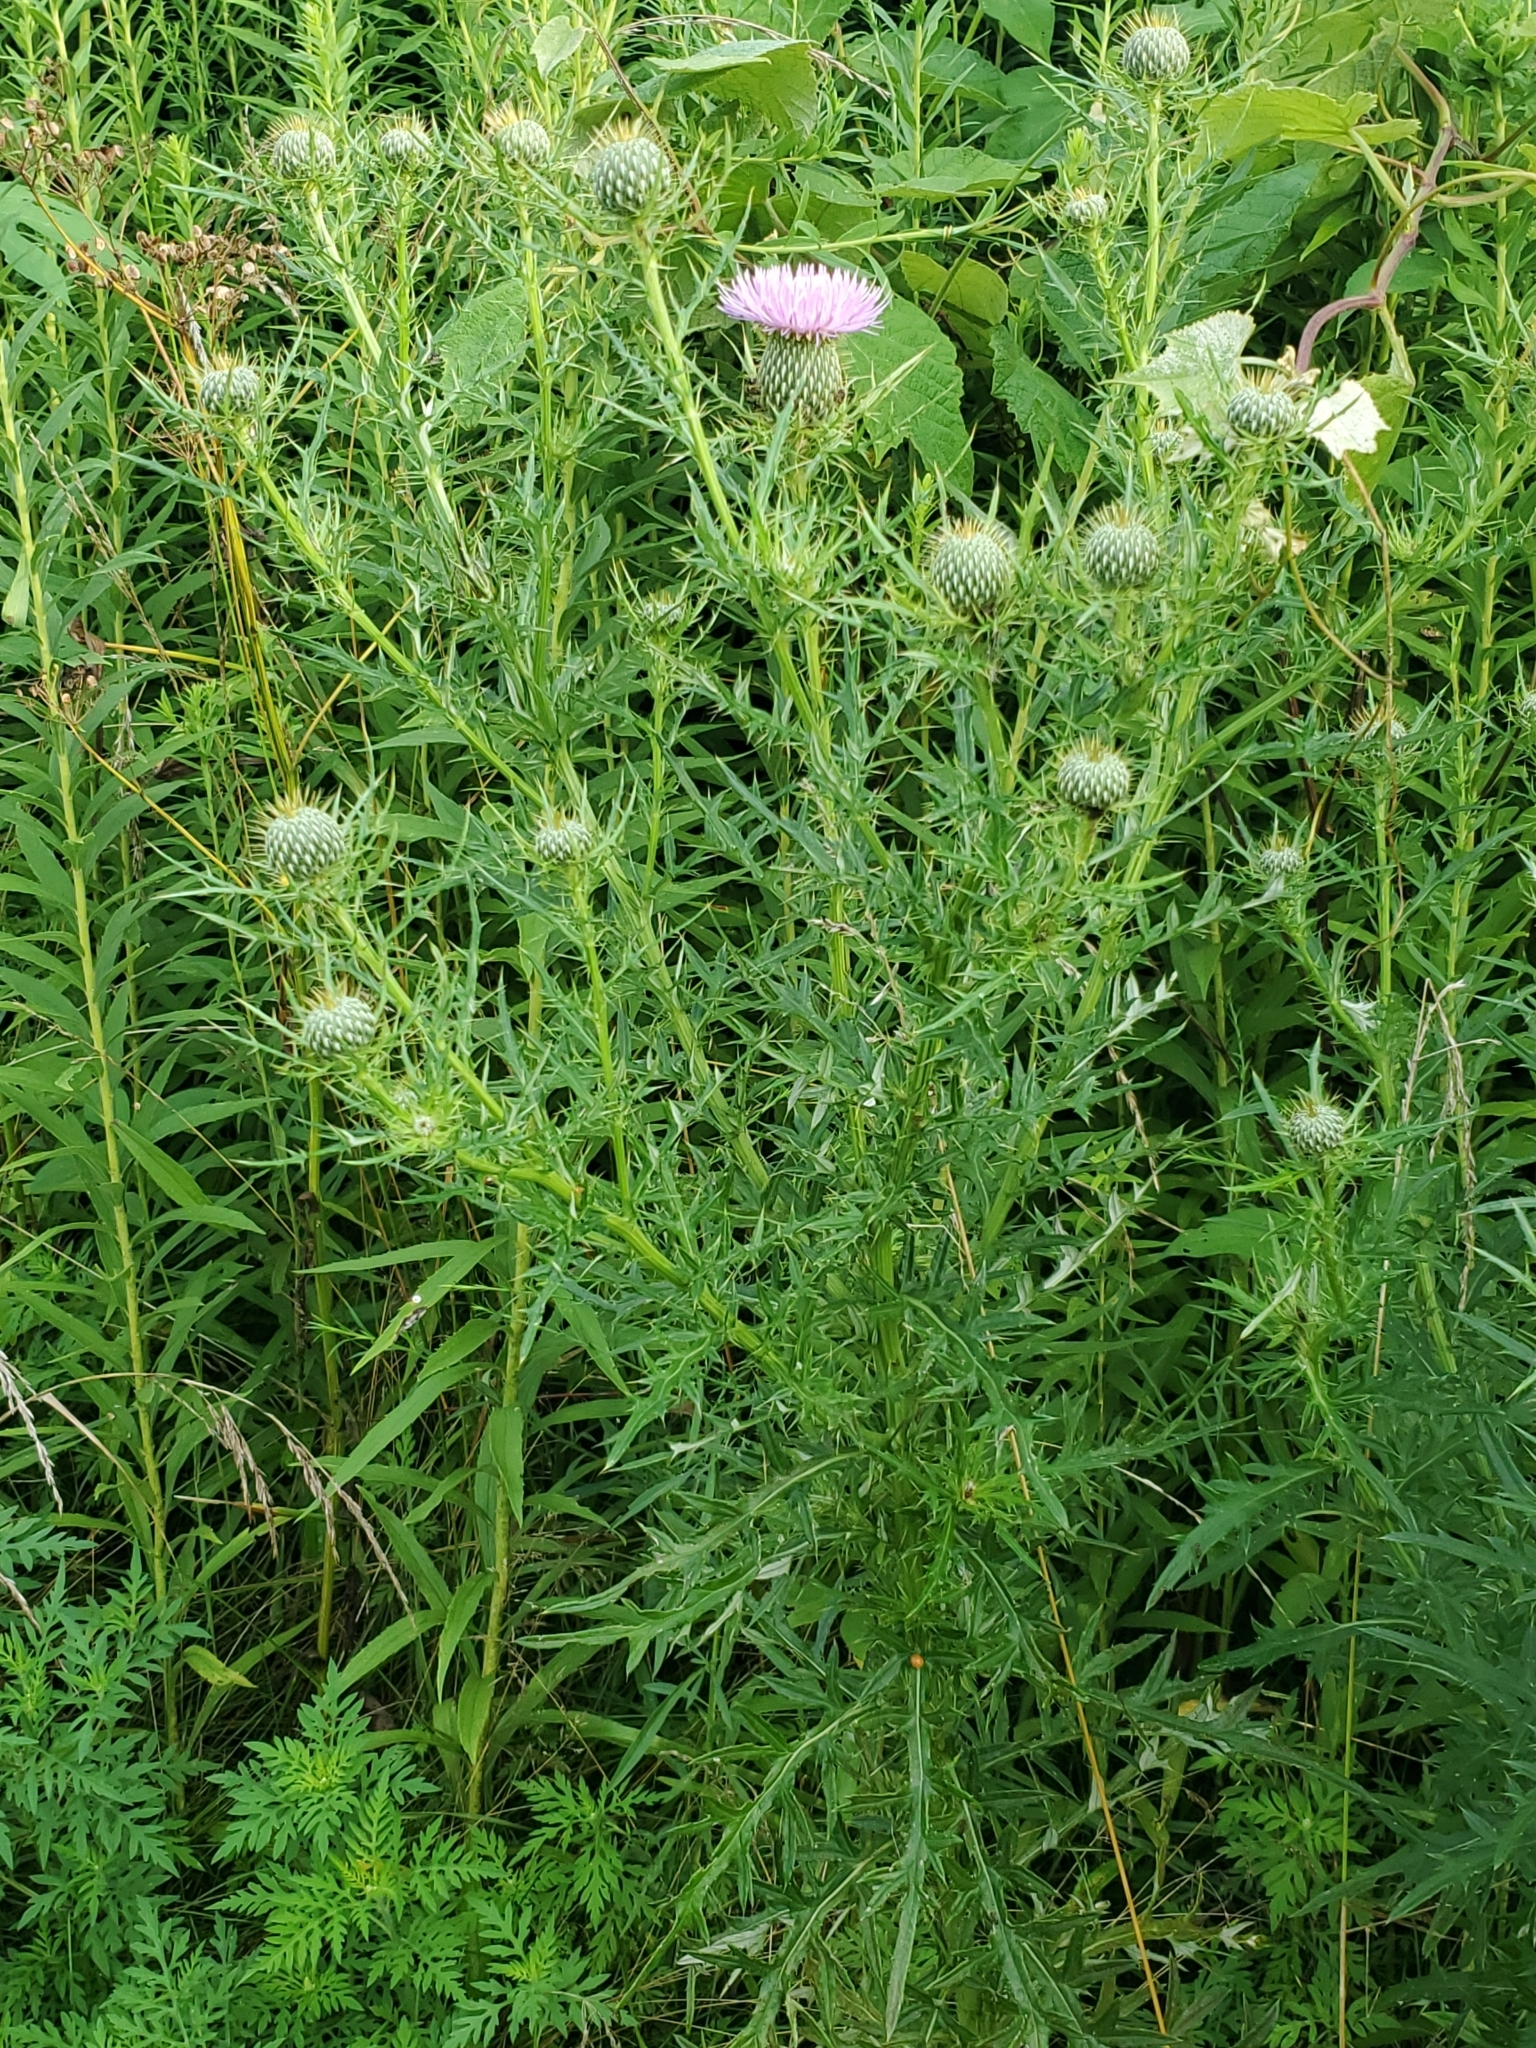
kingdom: Plantae
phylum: Tracheophyta
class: Magnoliopsida
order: Asterales
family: Asteraceae
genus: Cirsium
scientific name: Cirsium discolor
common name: Field thistle
